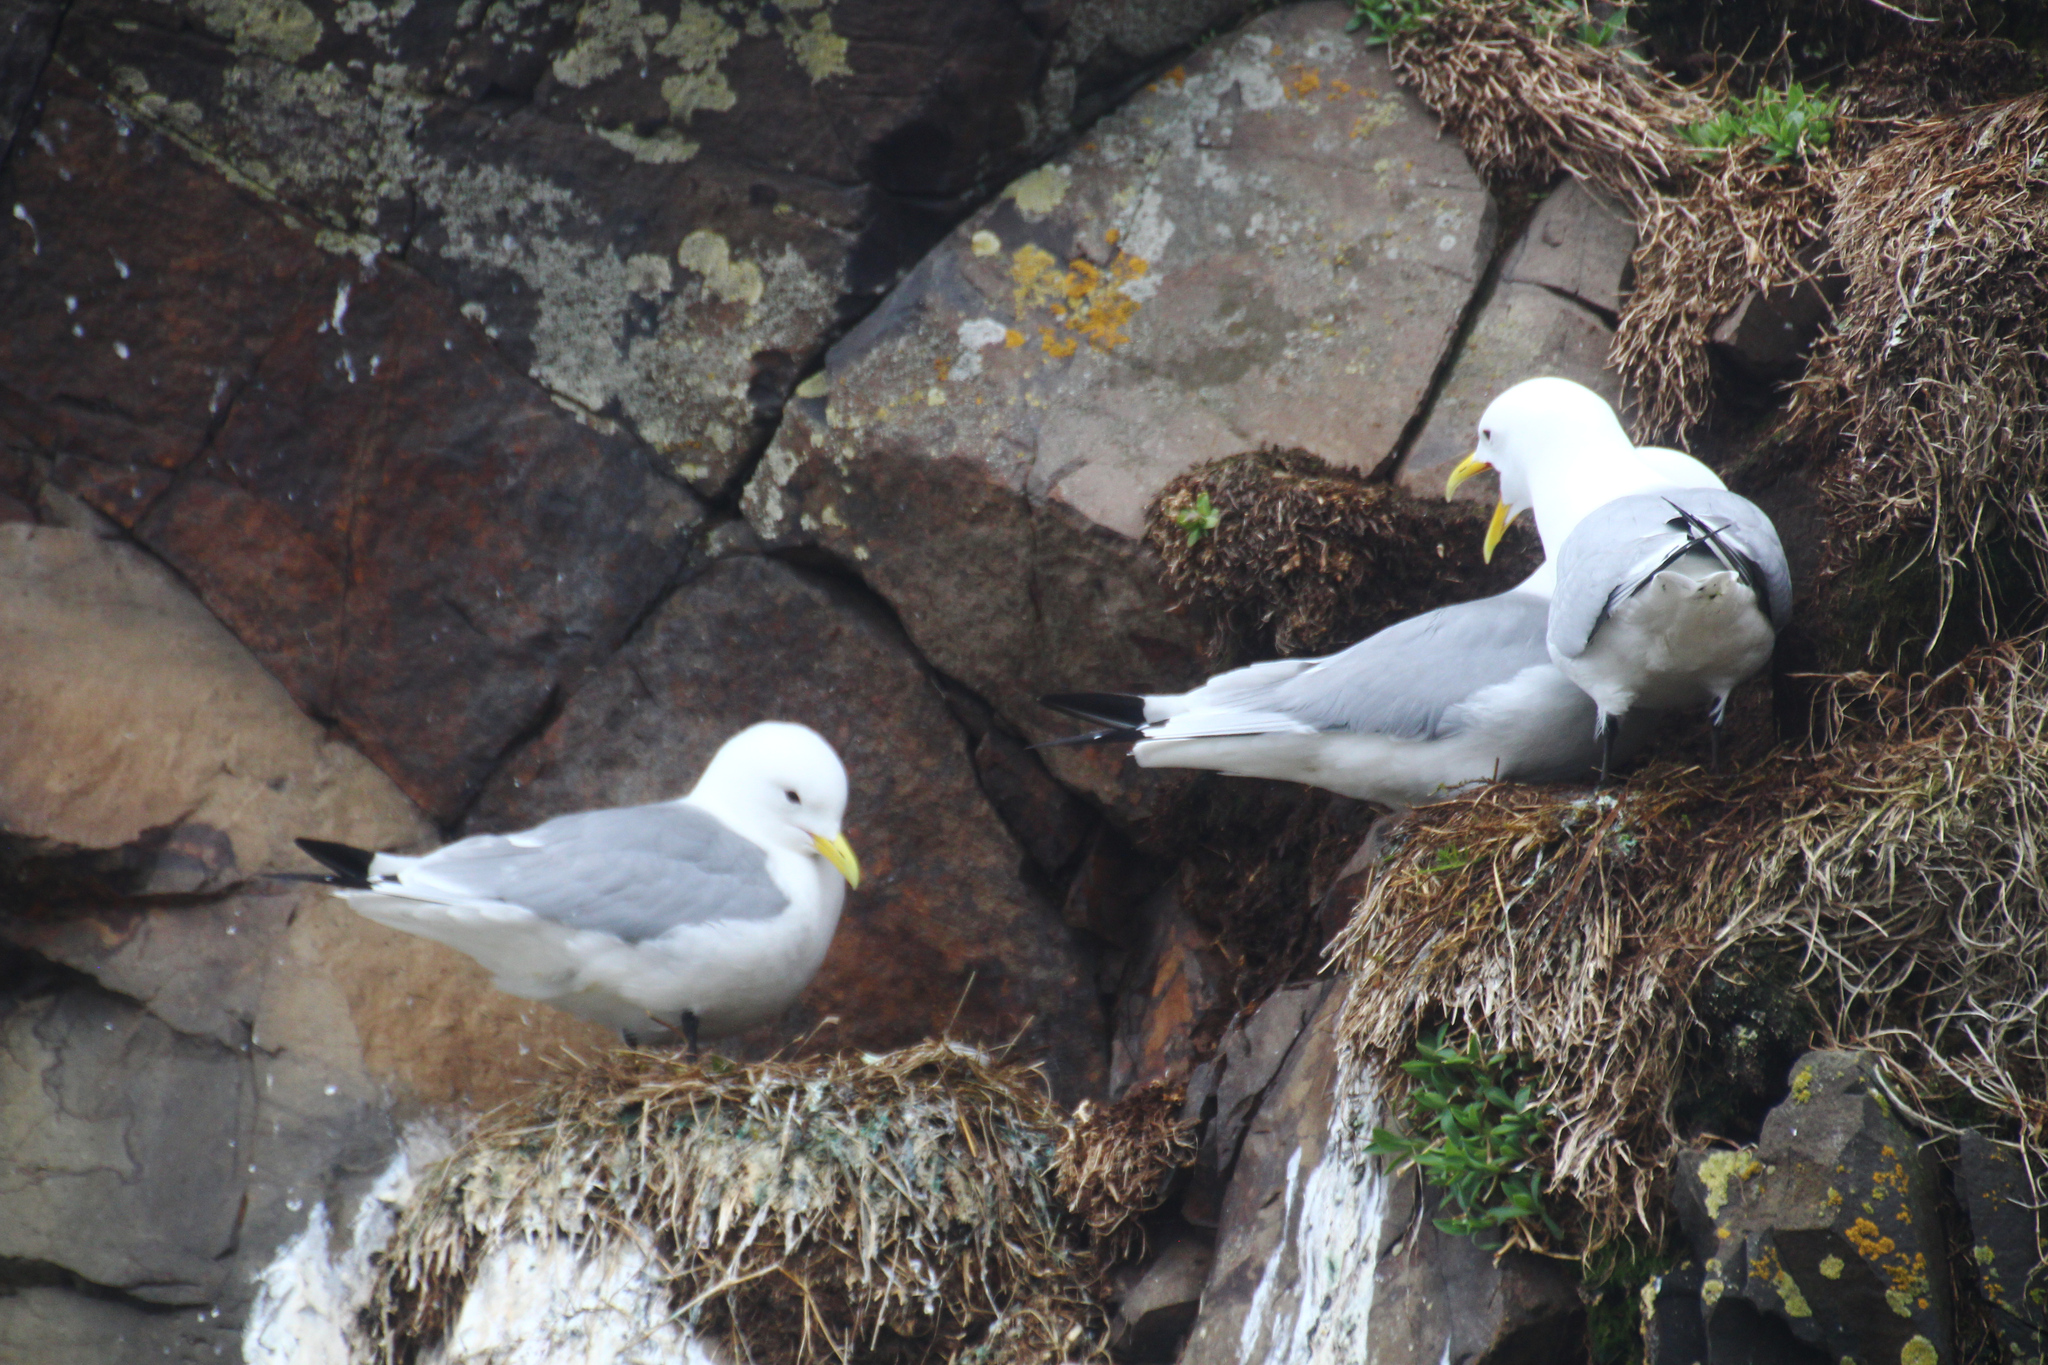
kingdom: Animalia
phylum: Chordata
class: Aves
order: Charadriiformes
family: Laridae
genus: Rissa
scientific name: Rissa tridactyla
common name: Black-legged kittiwake
